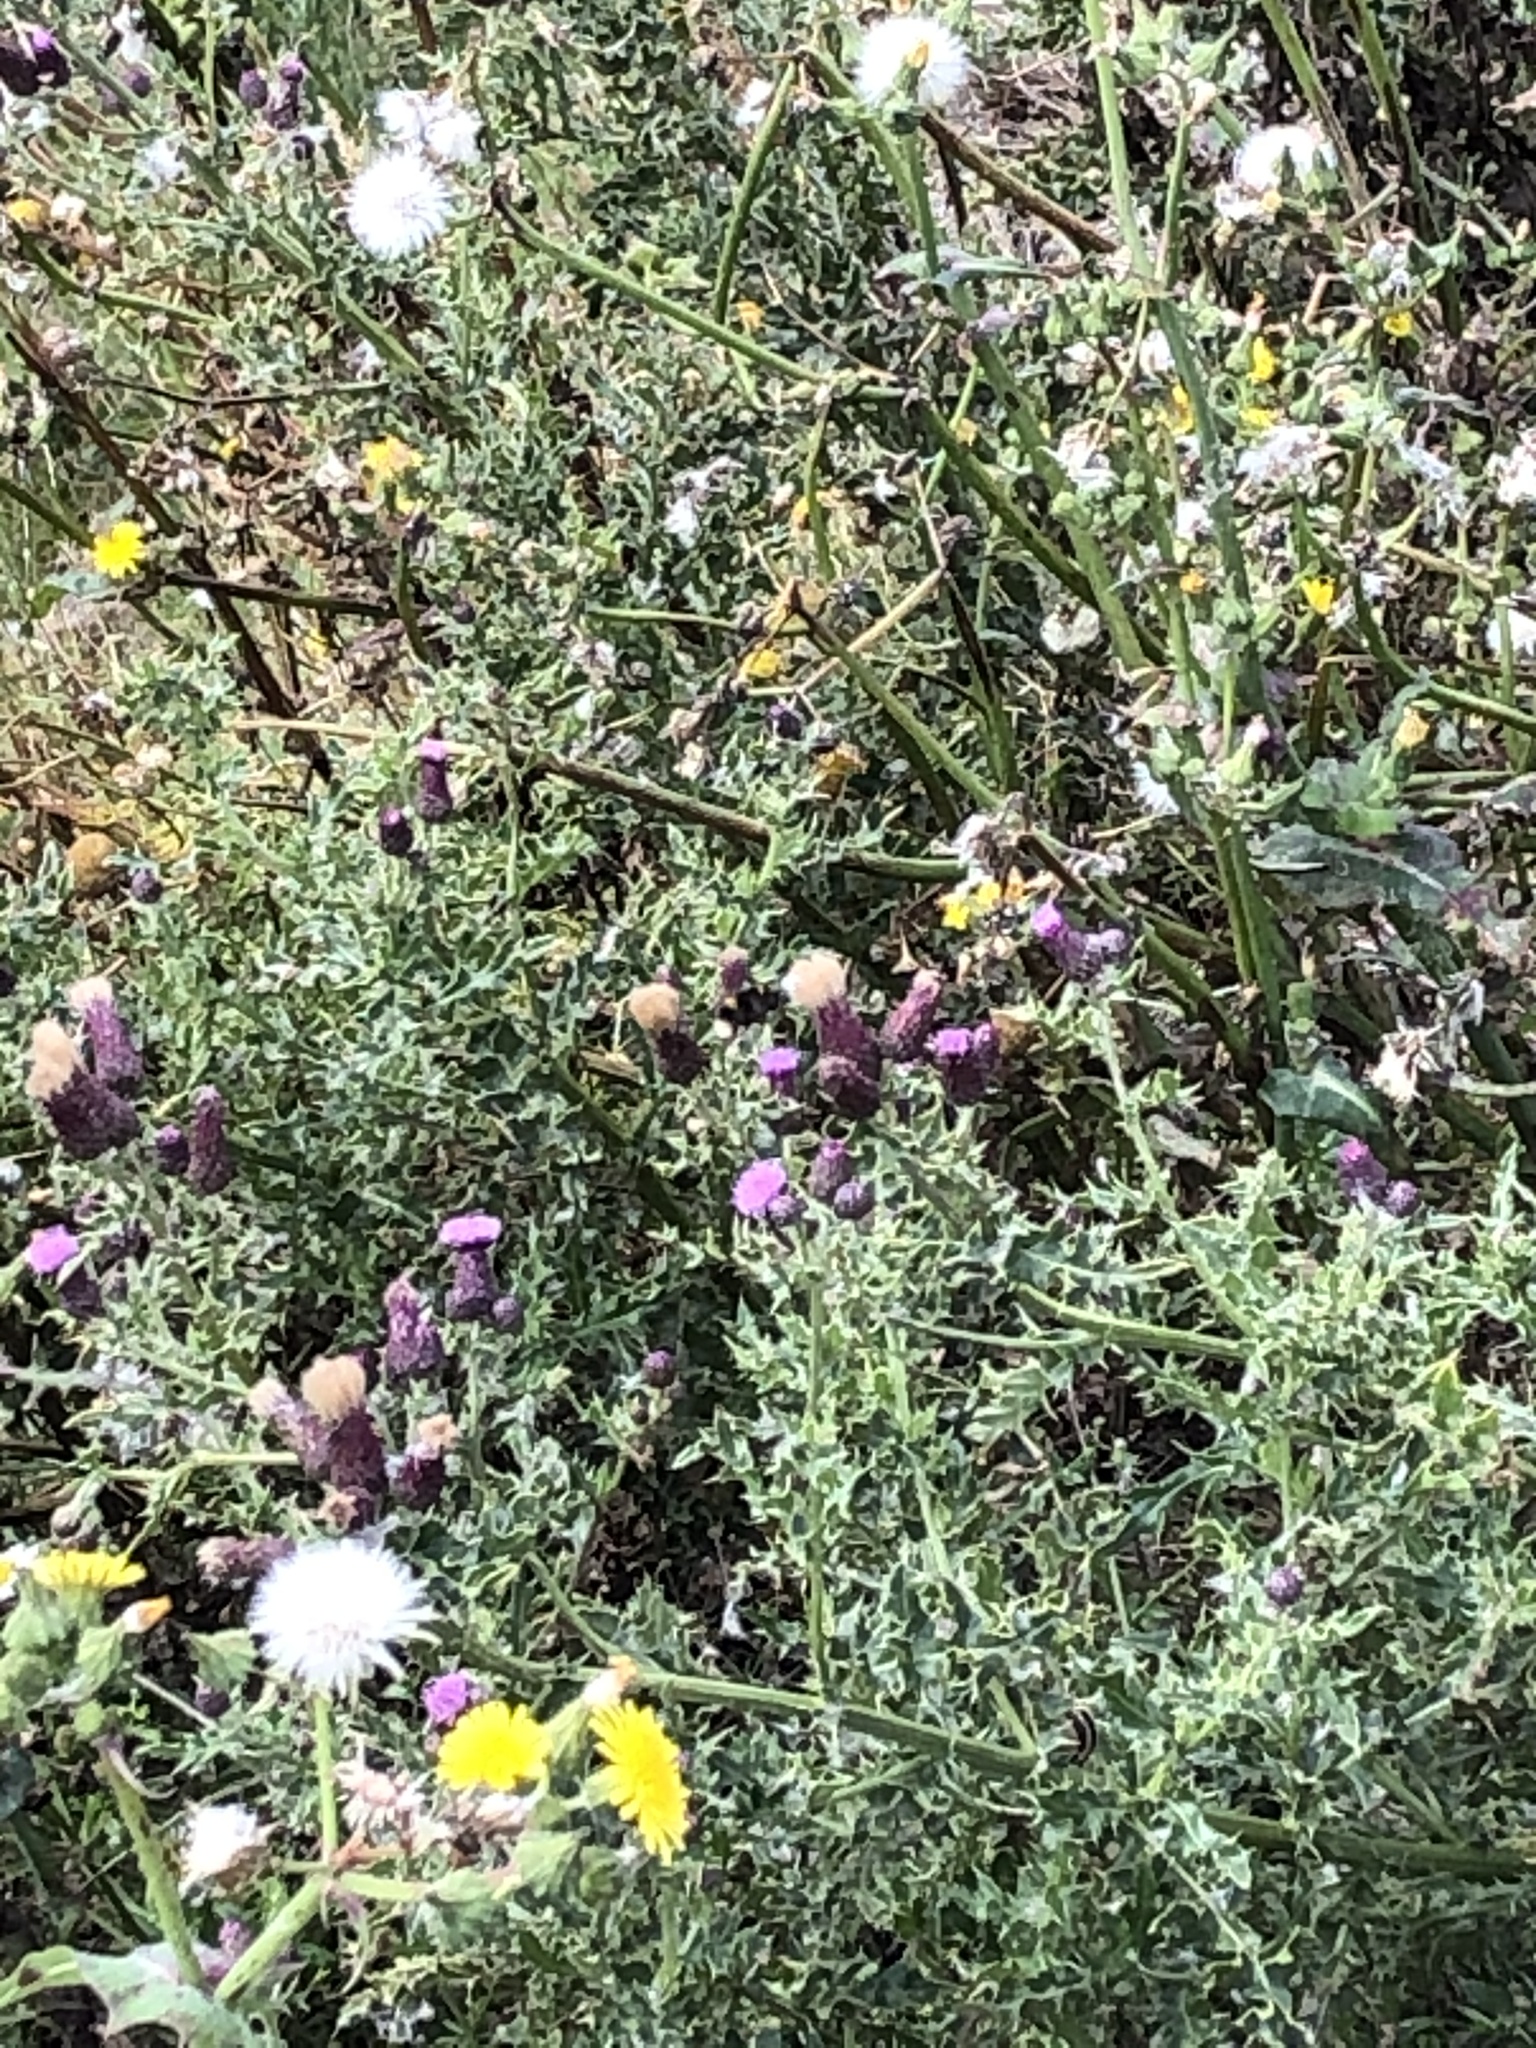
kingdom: Plantae
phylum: Tracheophyta
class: Magnoliopsida
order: Asterales
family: Asteraceae
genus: Cirsium
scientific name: Cirsium arvense
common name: Creeping thistle
